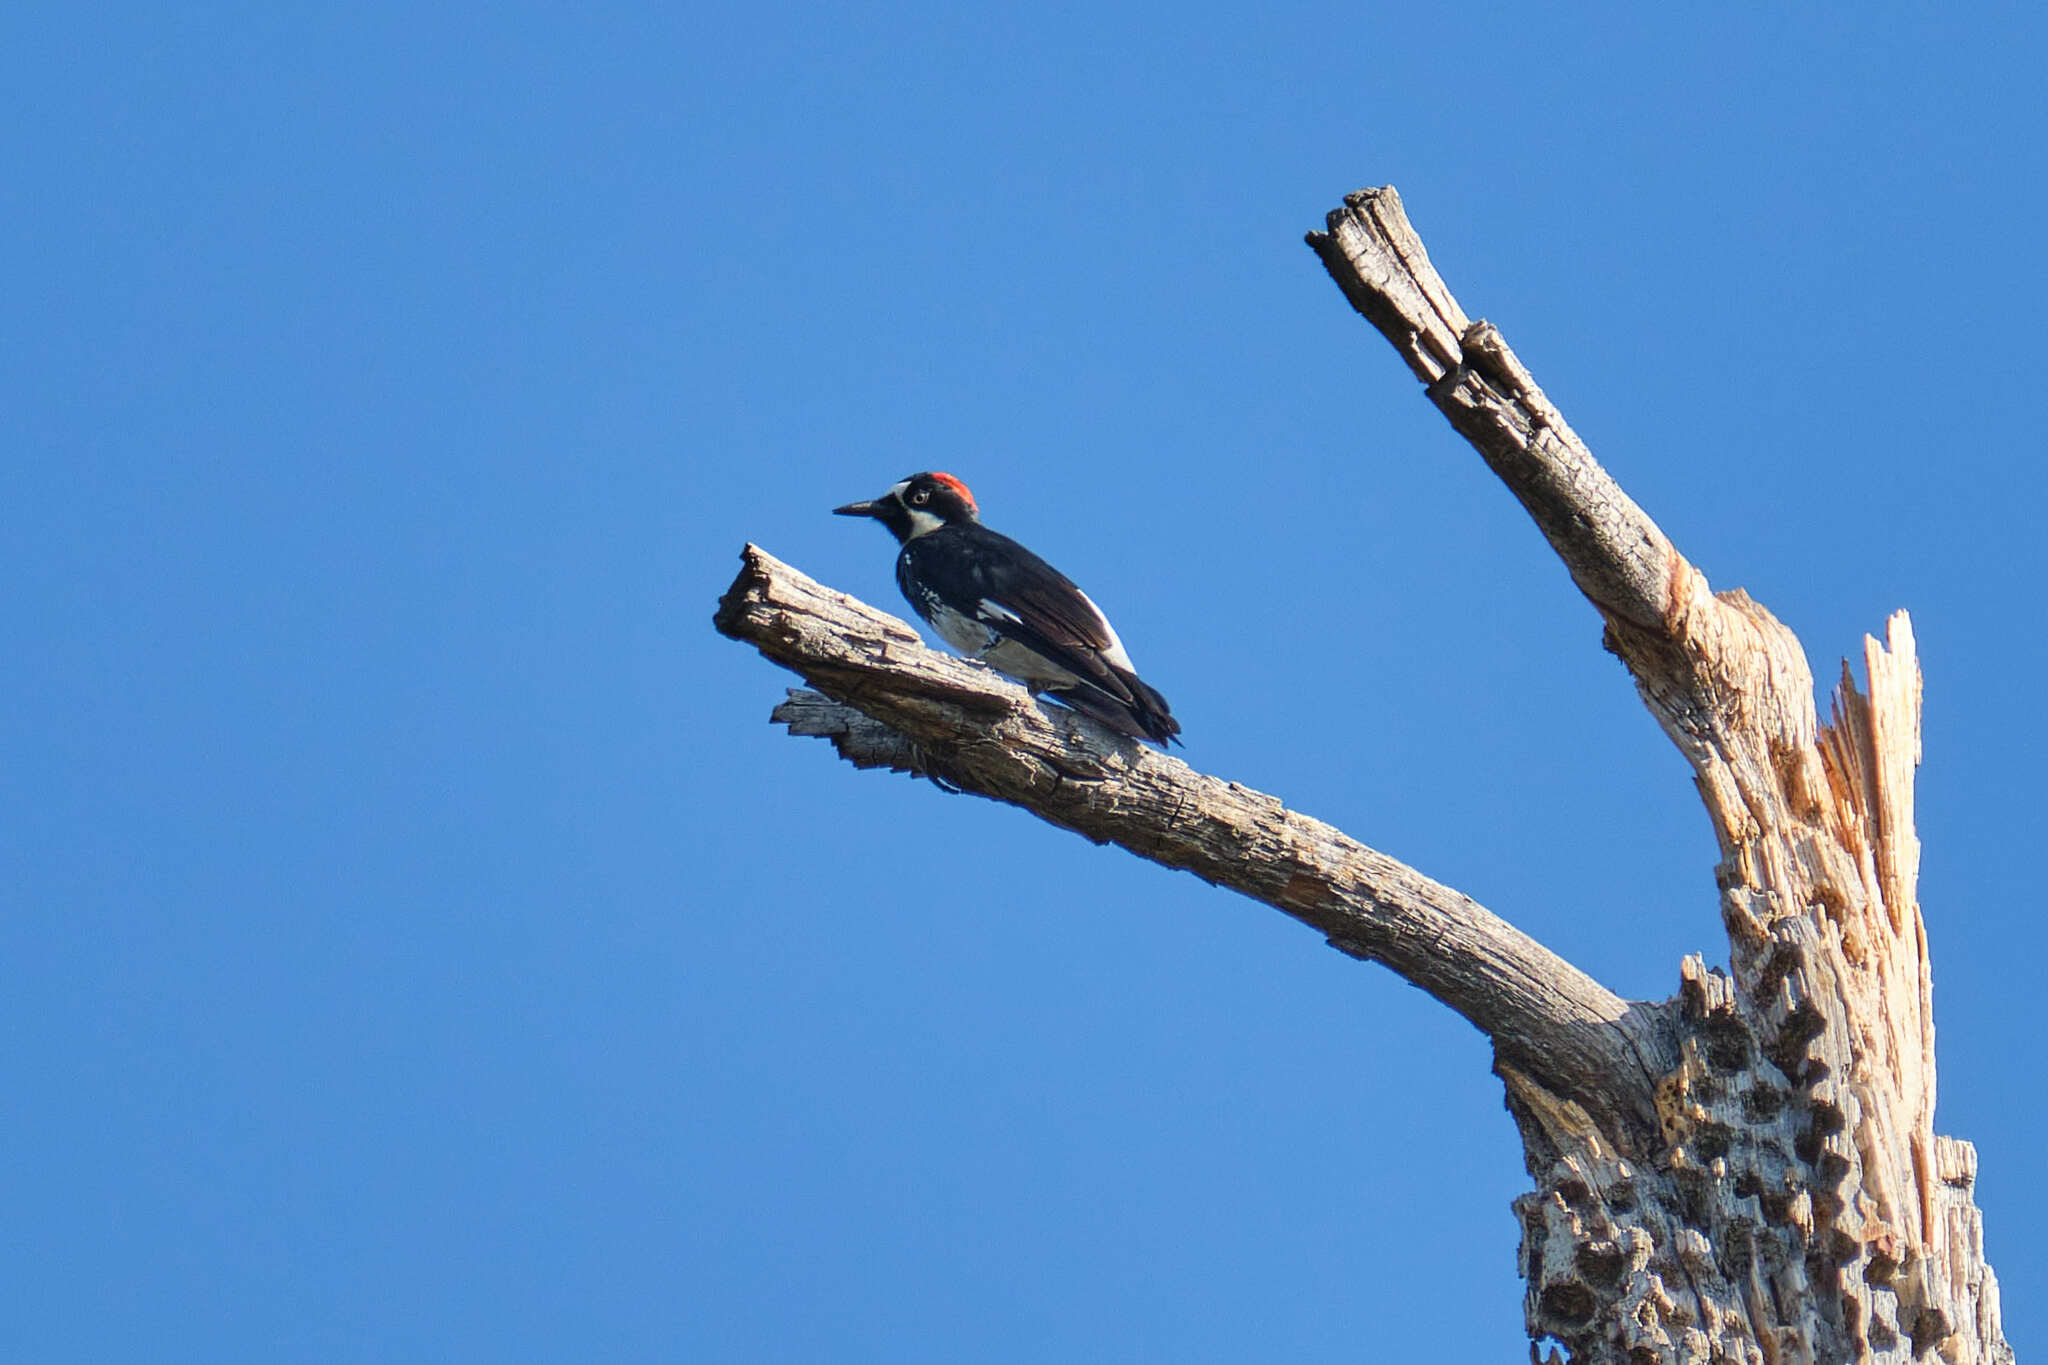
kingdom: Animalia
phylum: Chordata
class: Aves
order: Piciformes
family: Picidae
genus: Melanerpes
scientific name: Melanerpes formicivorus
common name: Acorn woodpecker
